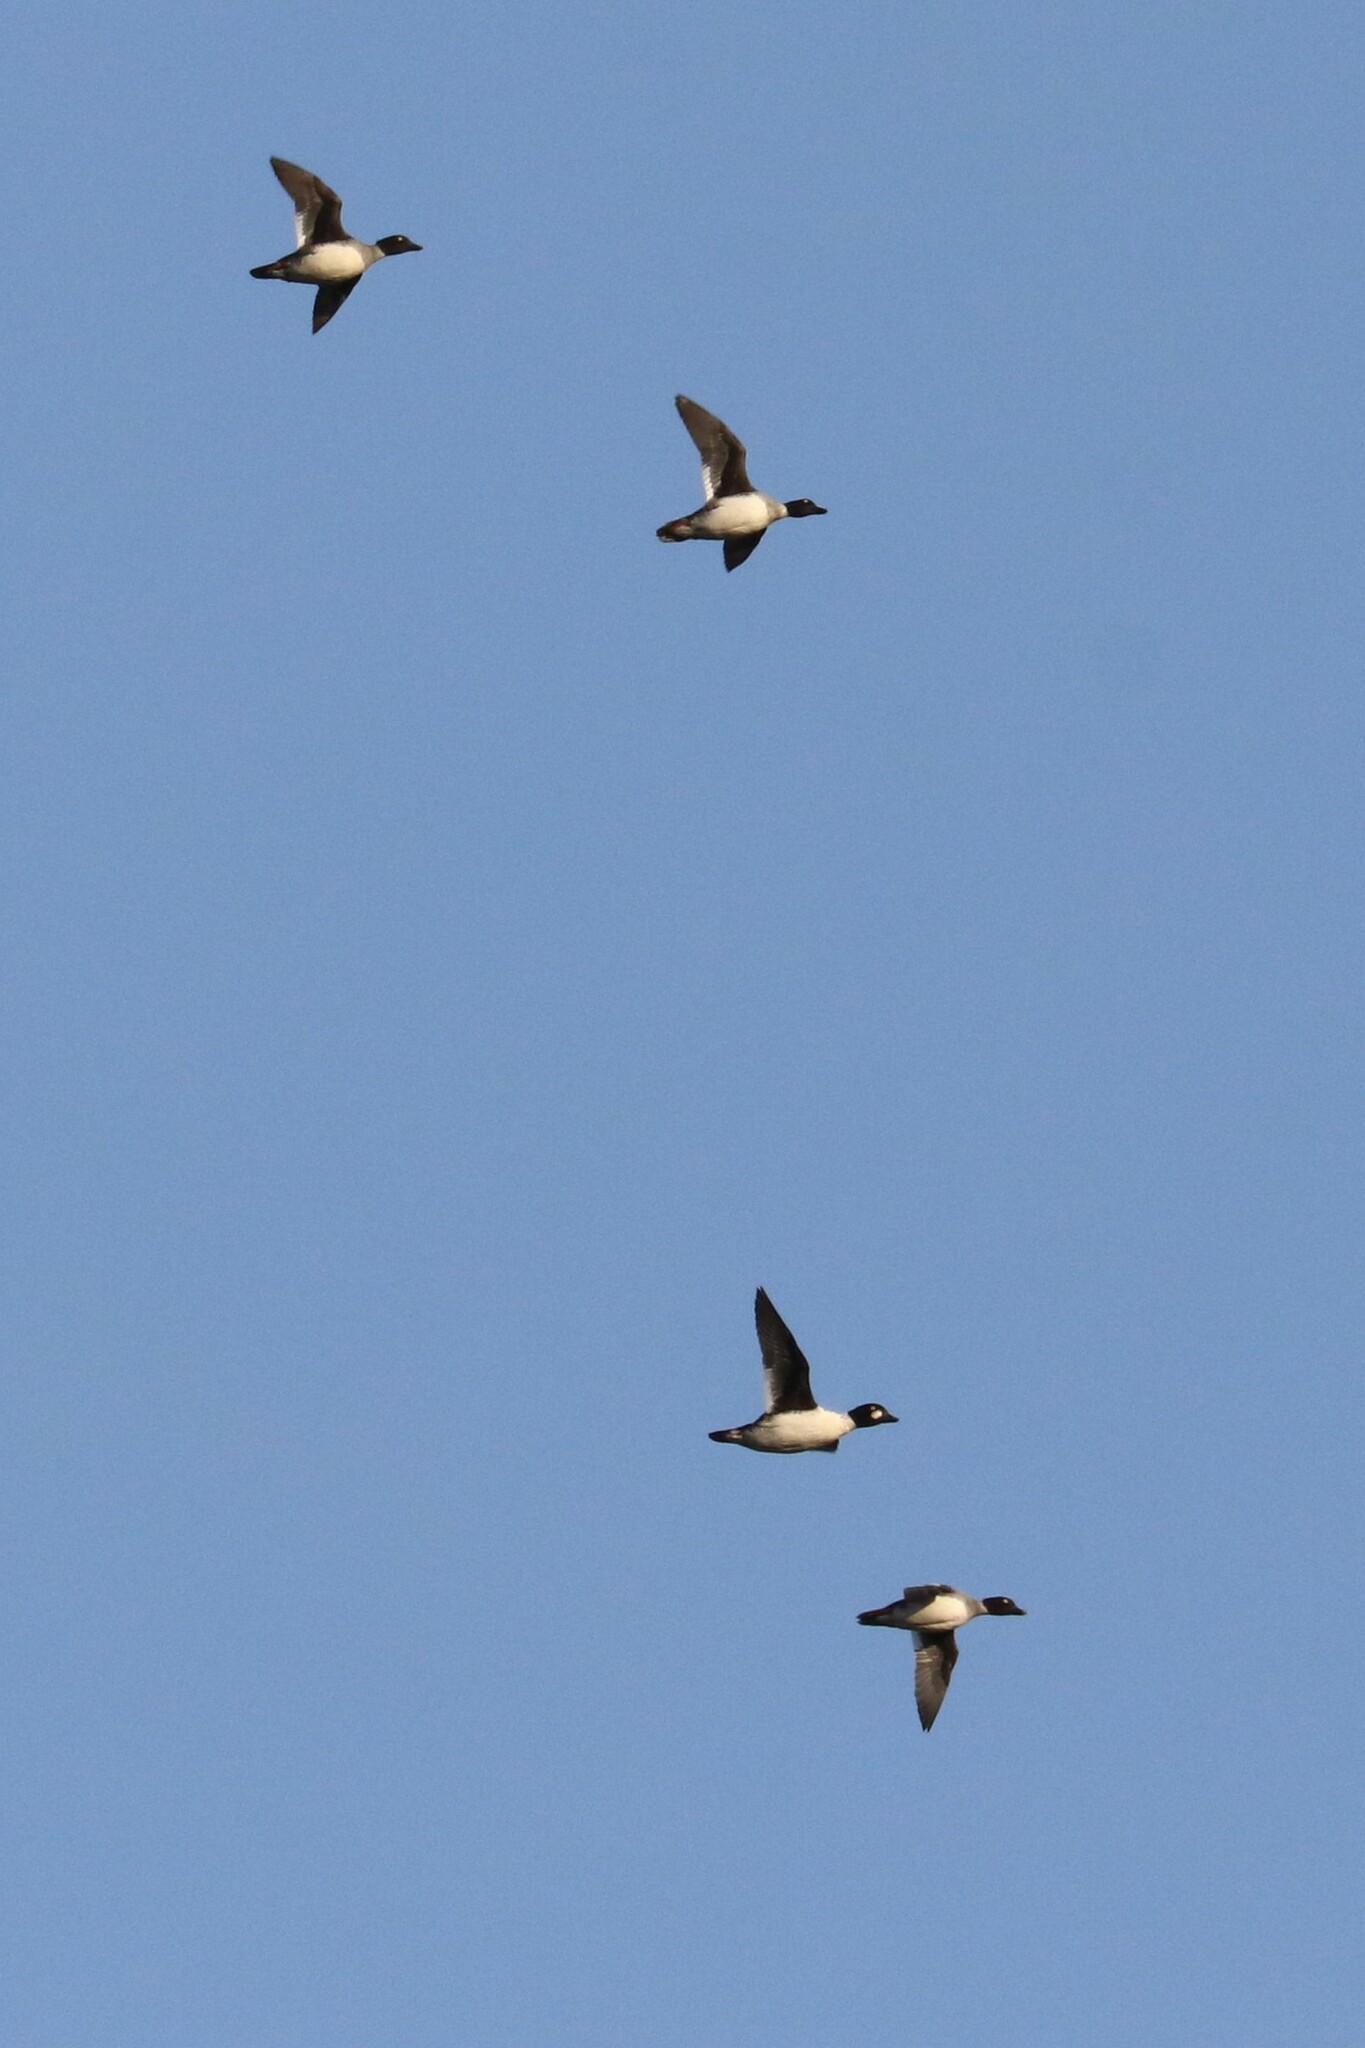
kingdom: Animalia
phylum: Chordata
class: Aves
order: Anseriformes
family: Anatidae
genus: Bucephala
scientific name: Bucephala clangula
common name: Common goldeneye
